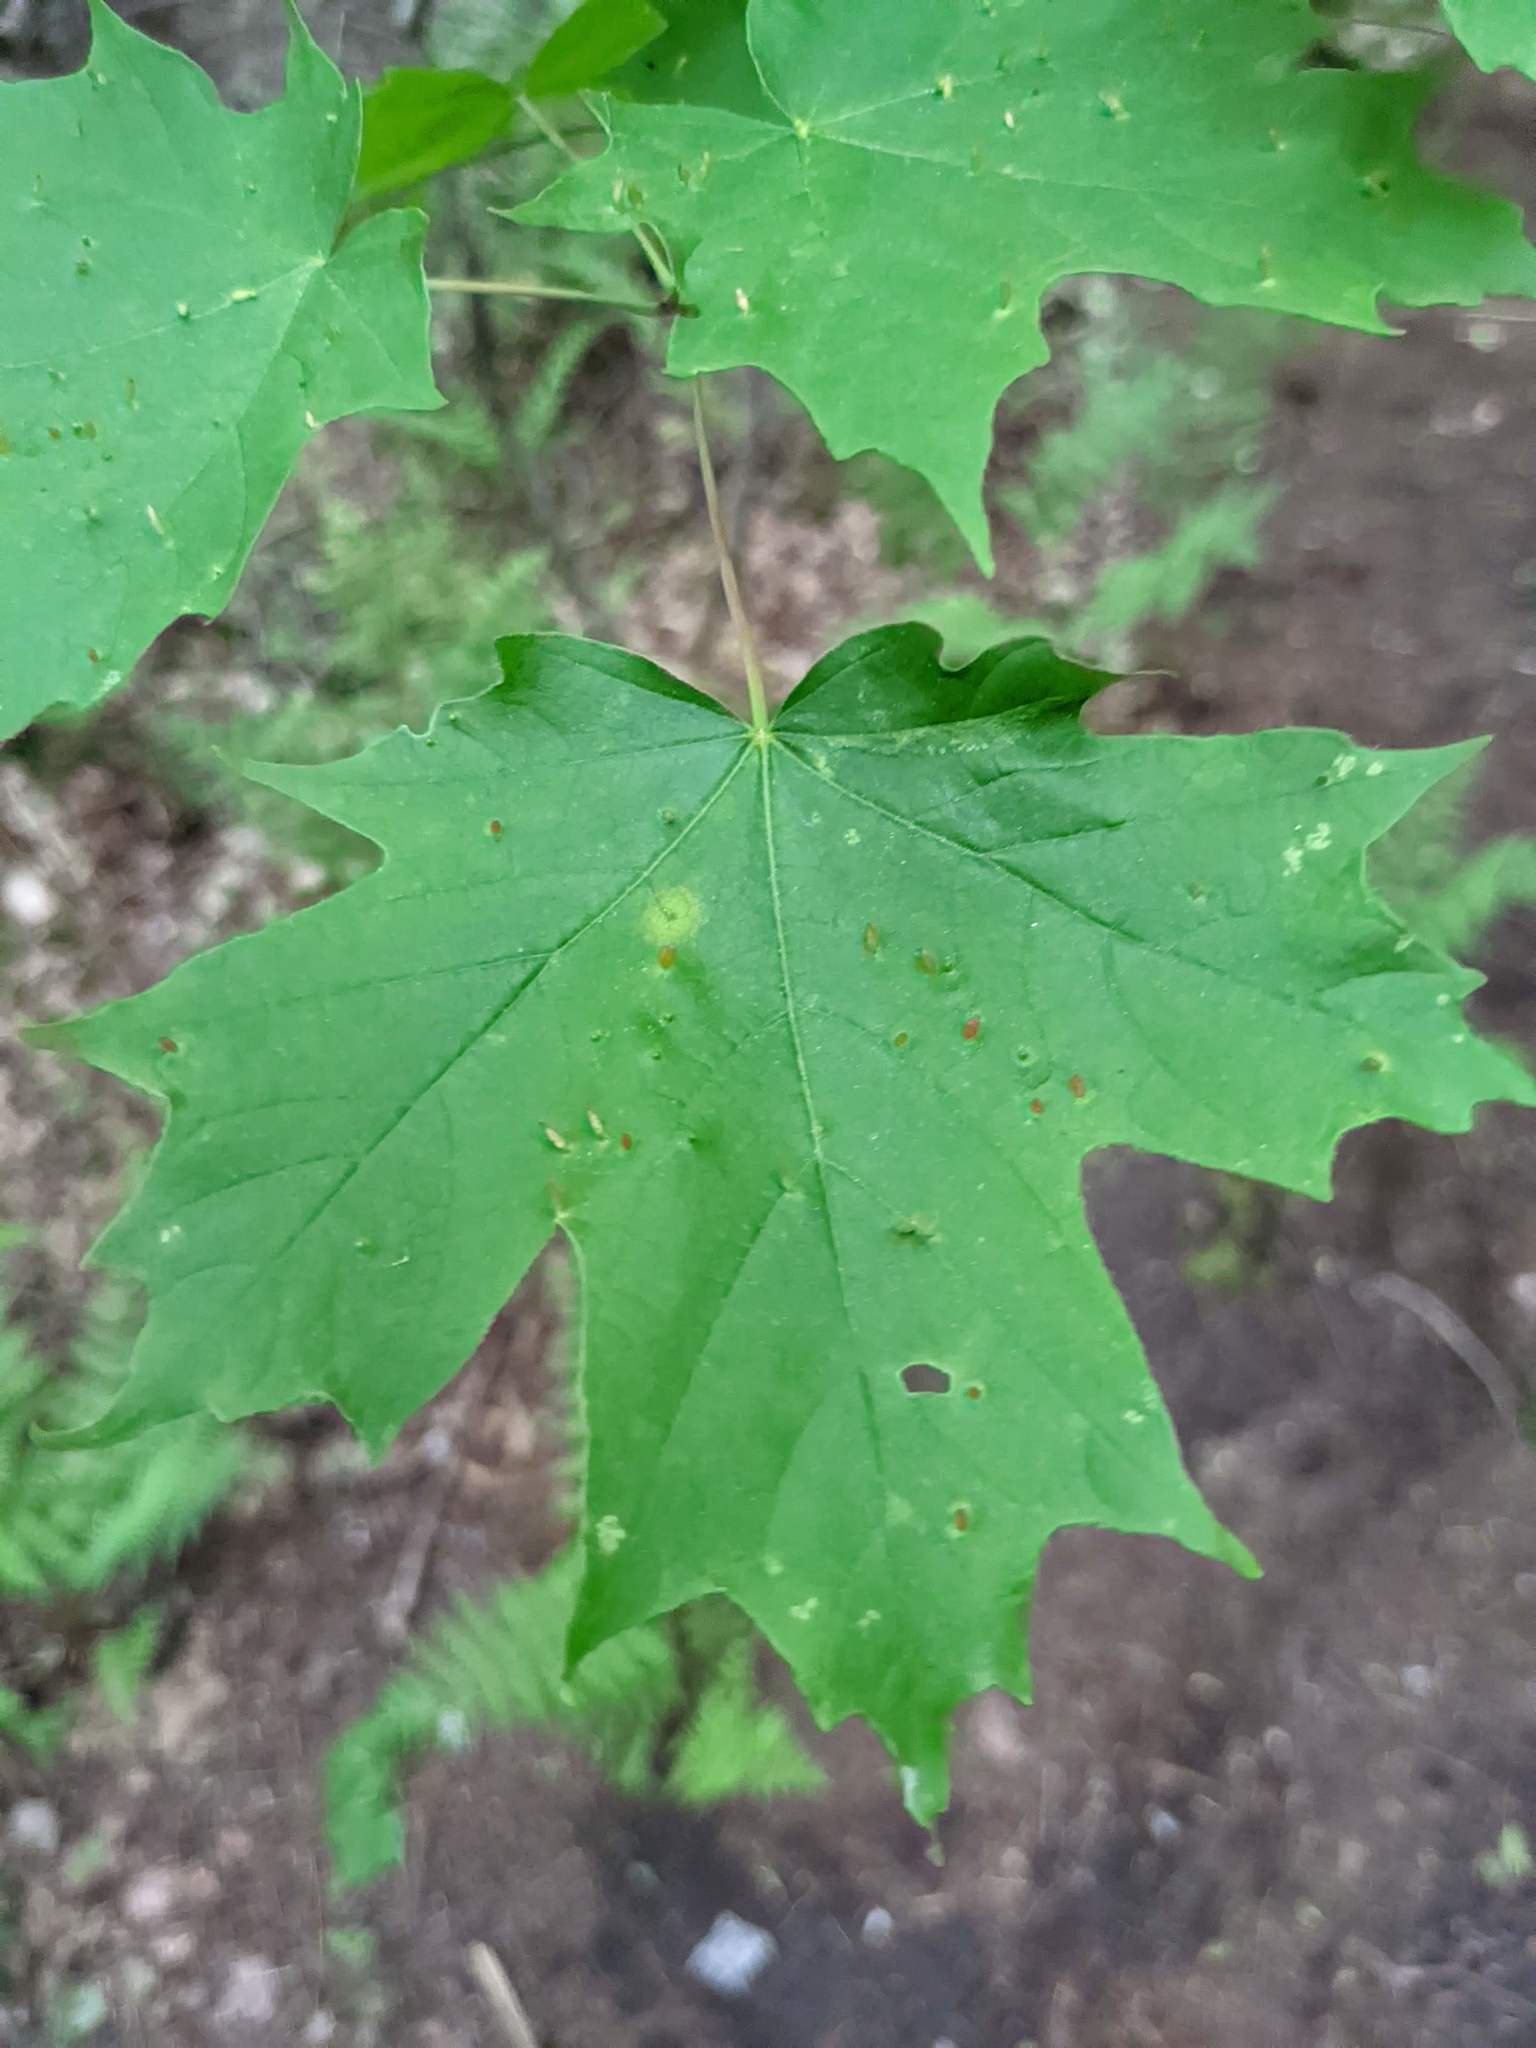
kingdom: Plantae
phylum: Tracheophyta
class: Magnoliopsida
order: Sapindales
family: Sapindaceae
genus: Acer
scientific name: Acer saccharum
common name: Sugar maple
